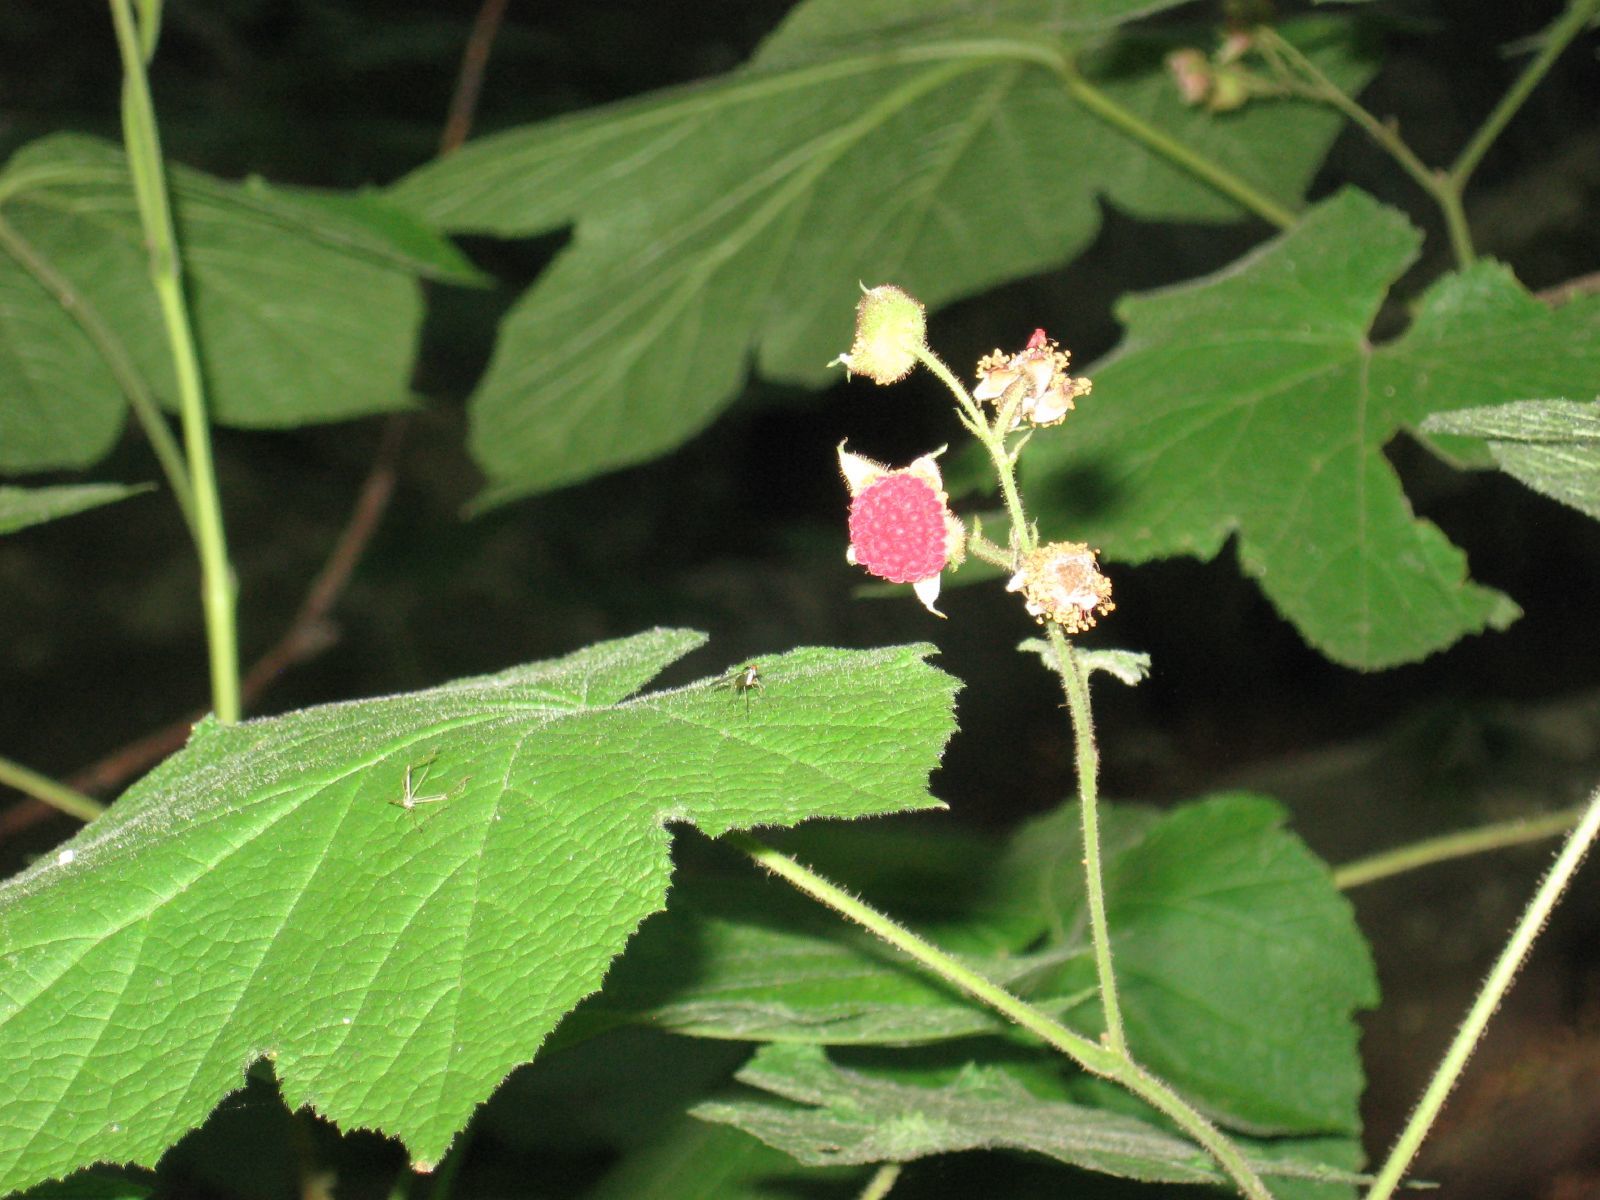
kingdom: Plantae
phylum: Tracheophyta
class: Magnoliopsida
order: Rosales
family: Rosaceae
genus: Rubus
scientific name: Rubus odoratus
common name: Purple-flowered raspberry
